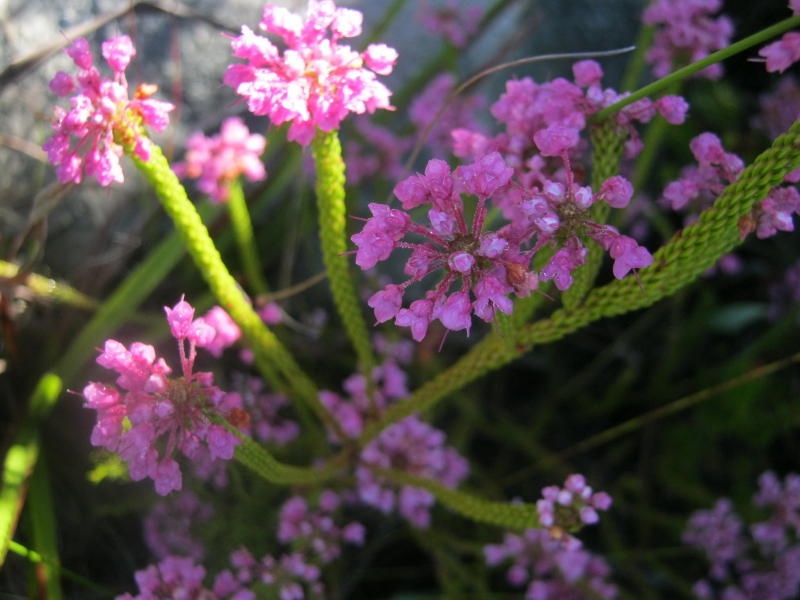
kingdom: Plantae
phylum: Tracheophyta
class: Magnoliopsida
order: Ericales
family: Ericaceae
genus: Erica
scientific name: Erica seriphiifolia
